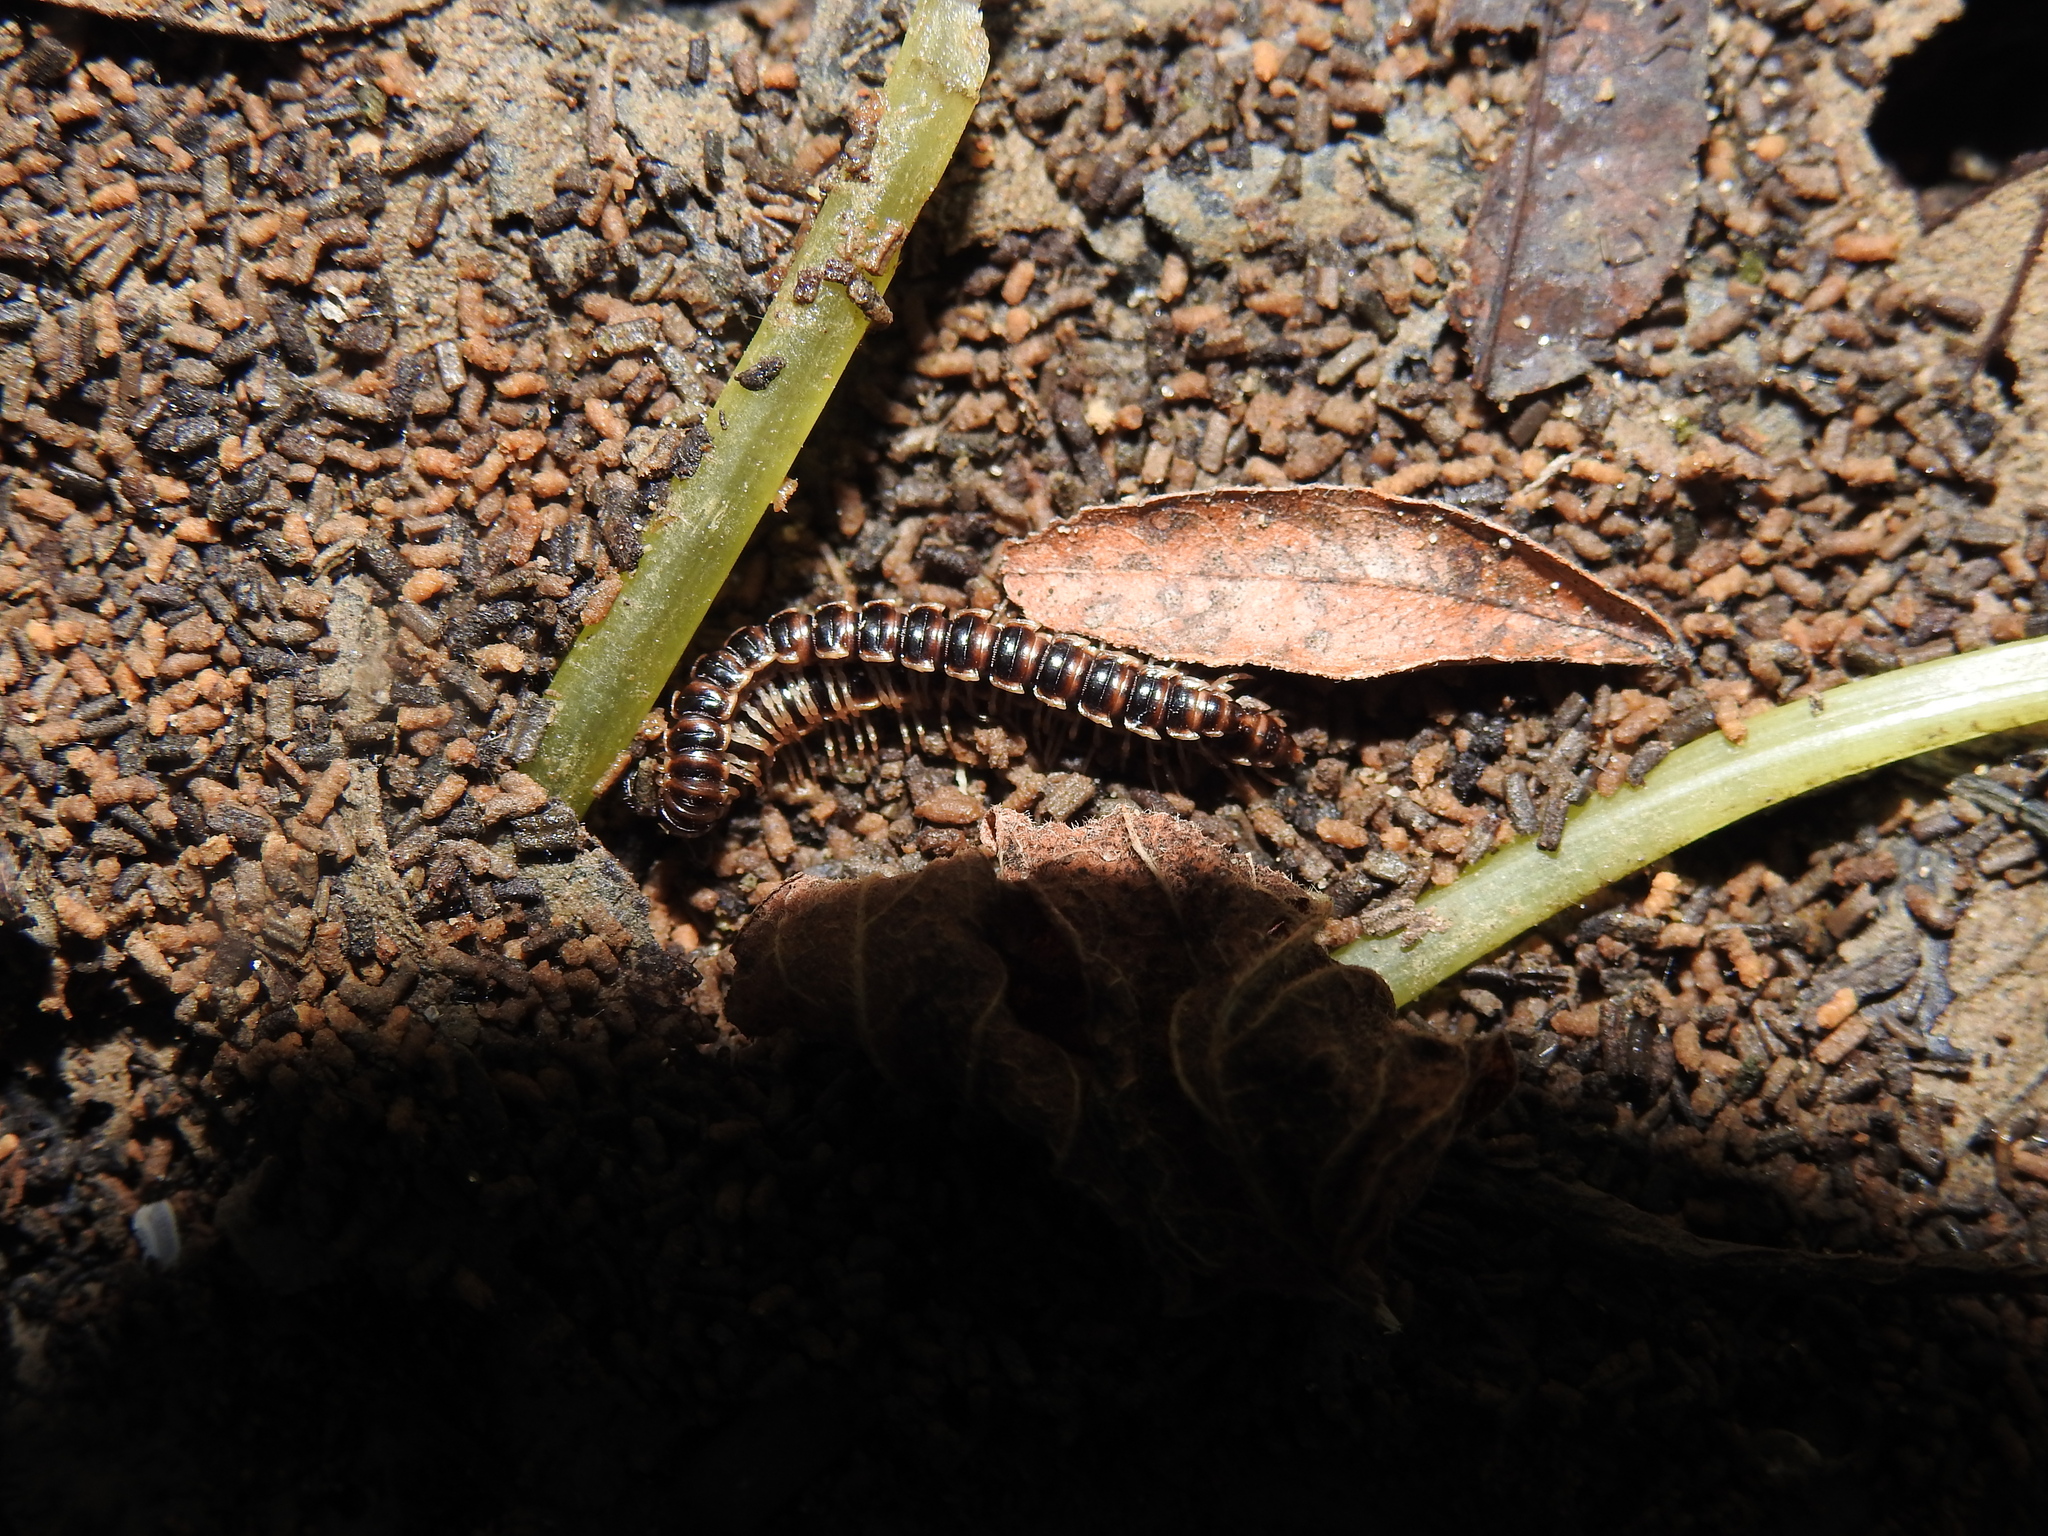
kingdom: Animalia
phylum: Arthropoda
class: Diplopoda
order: Polydesmida
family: Paradoxosomatidae
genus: Oxidus
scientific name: Oxidus gracilis
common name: Greenhouse millipede
